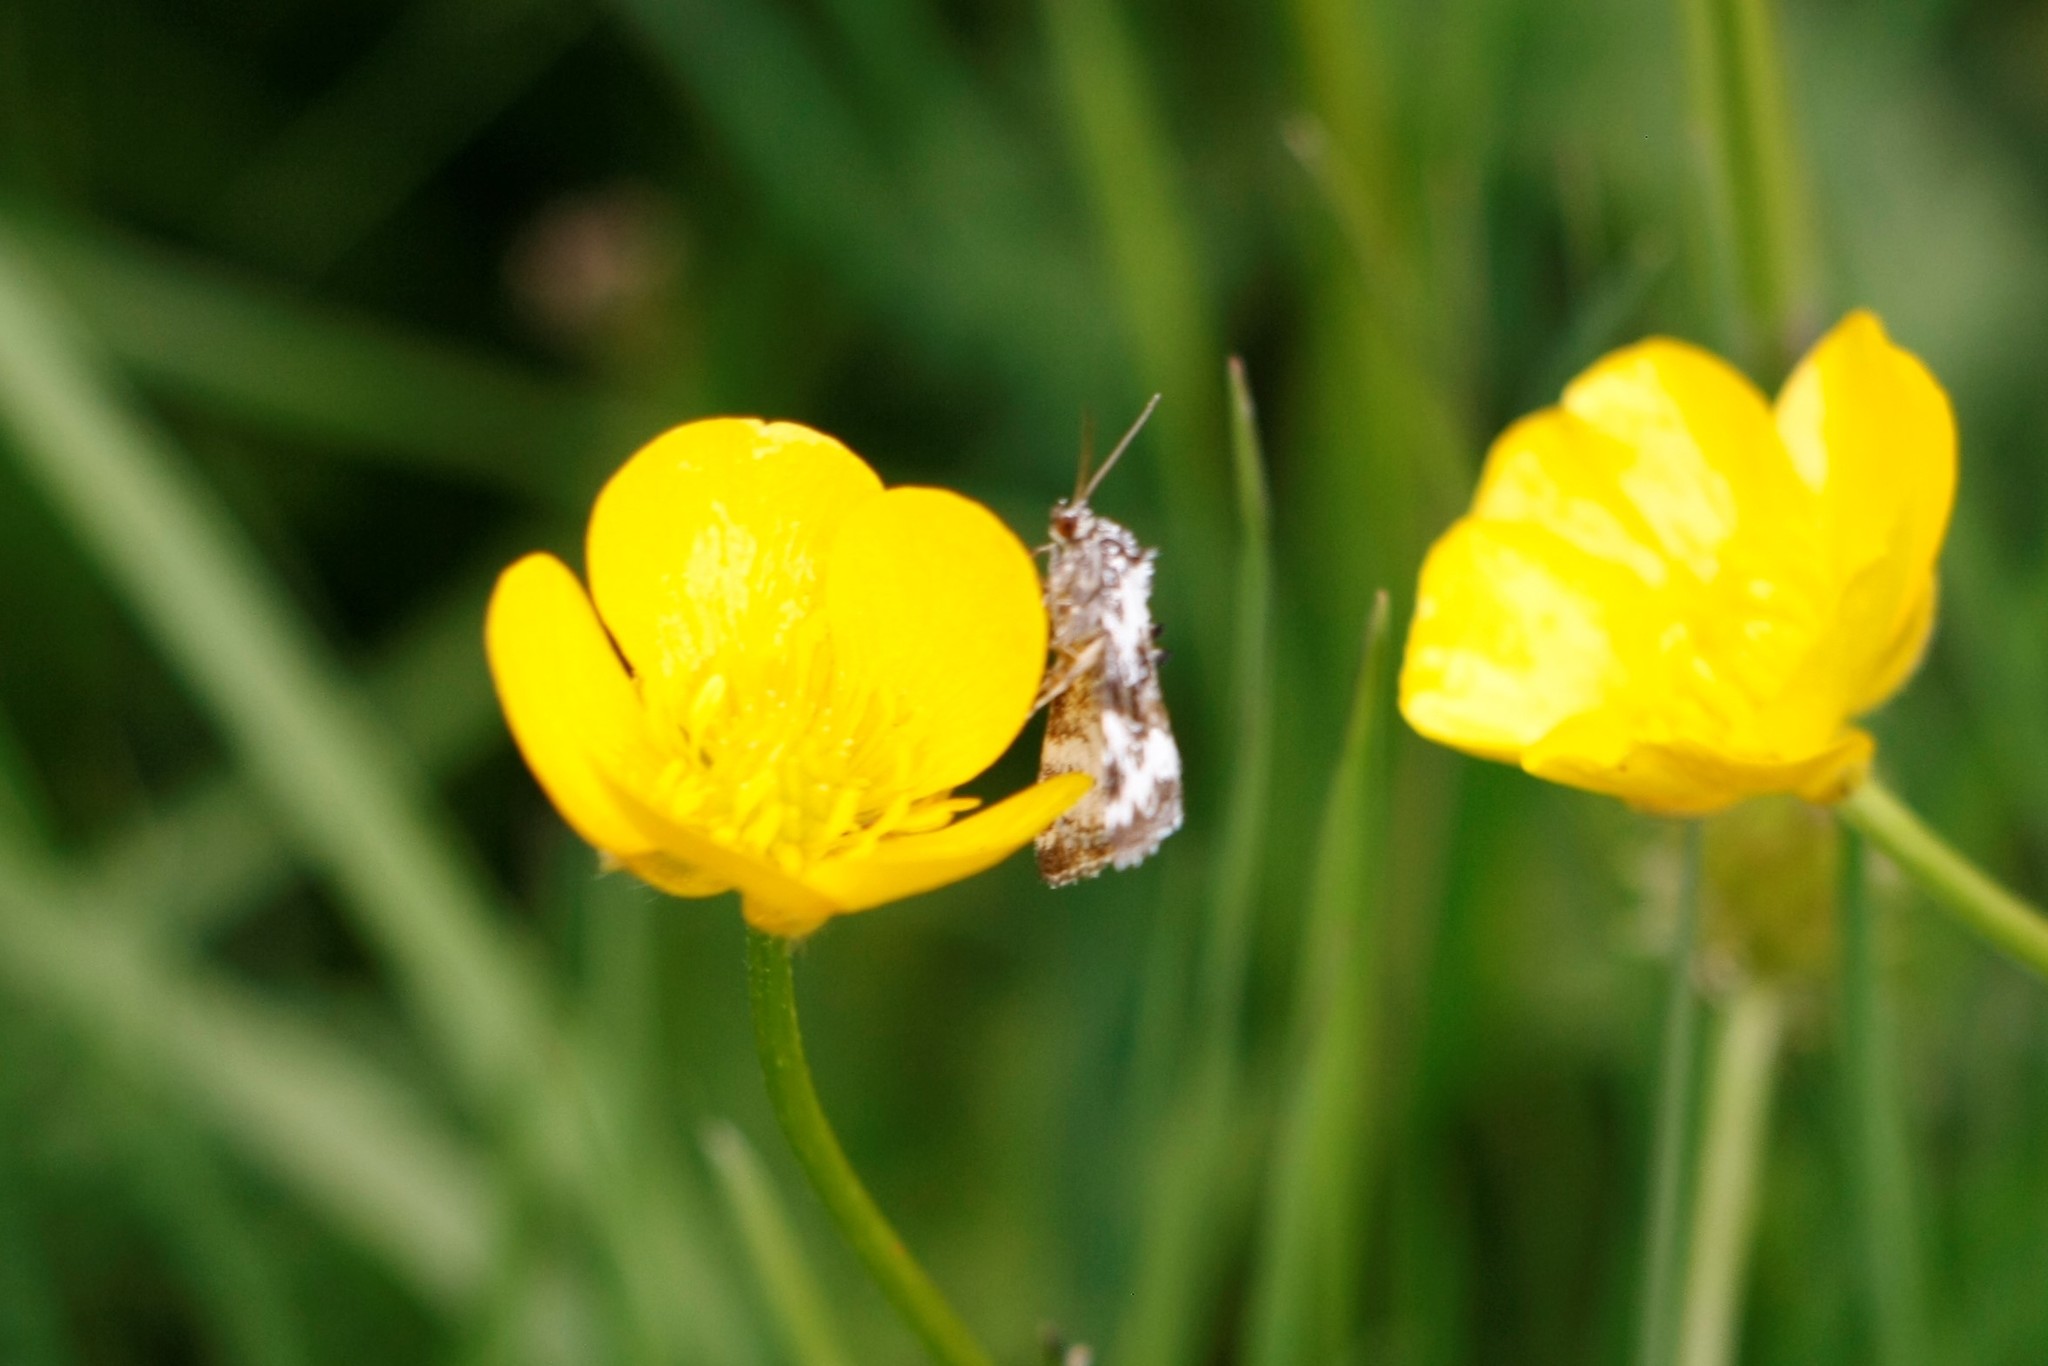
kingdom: Animalia
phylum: Arthropoda
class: Insecta
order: Lepidoptera
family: Noctuidae
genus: Deltote
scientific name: Deltote deceptoria
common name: Pretty marbled
